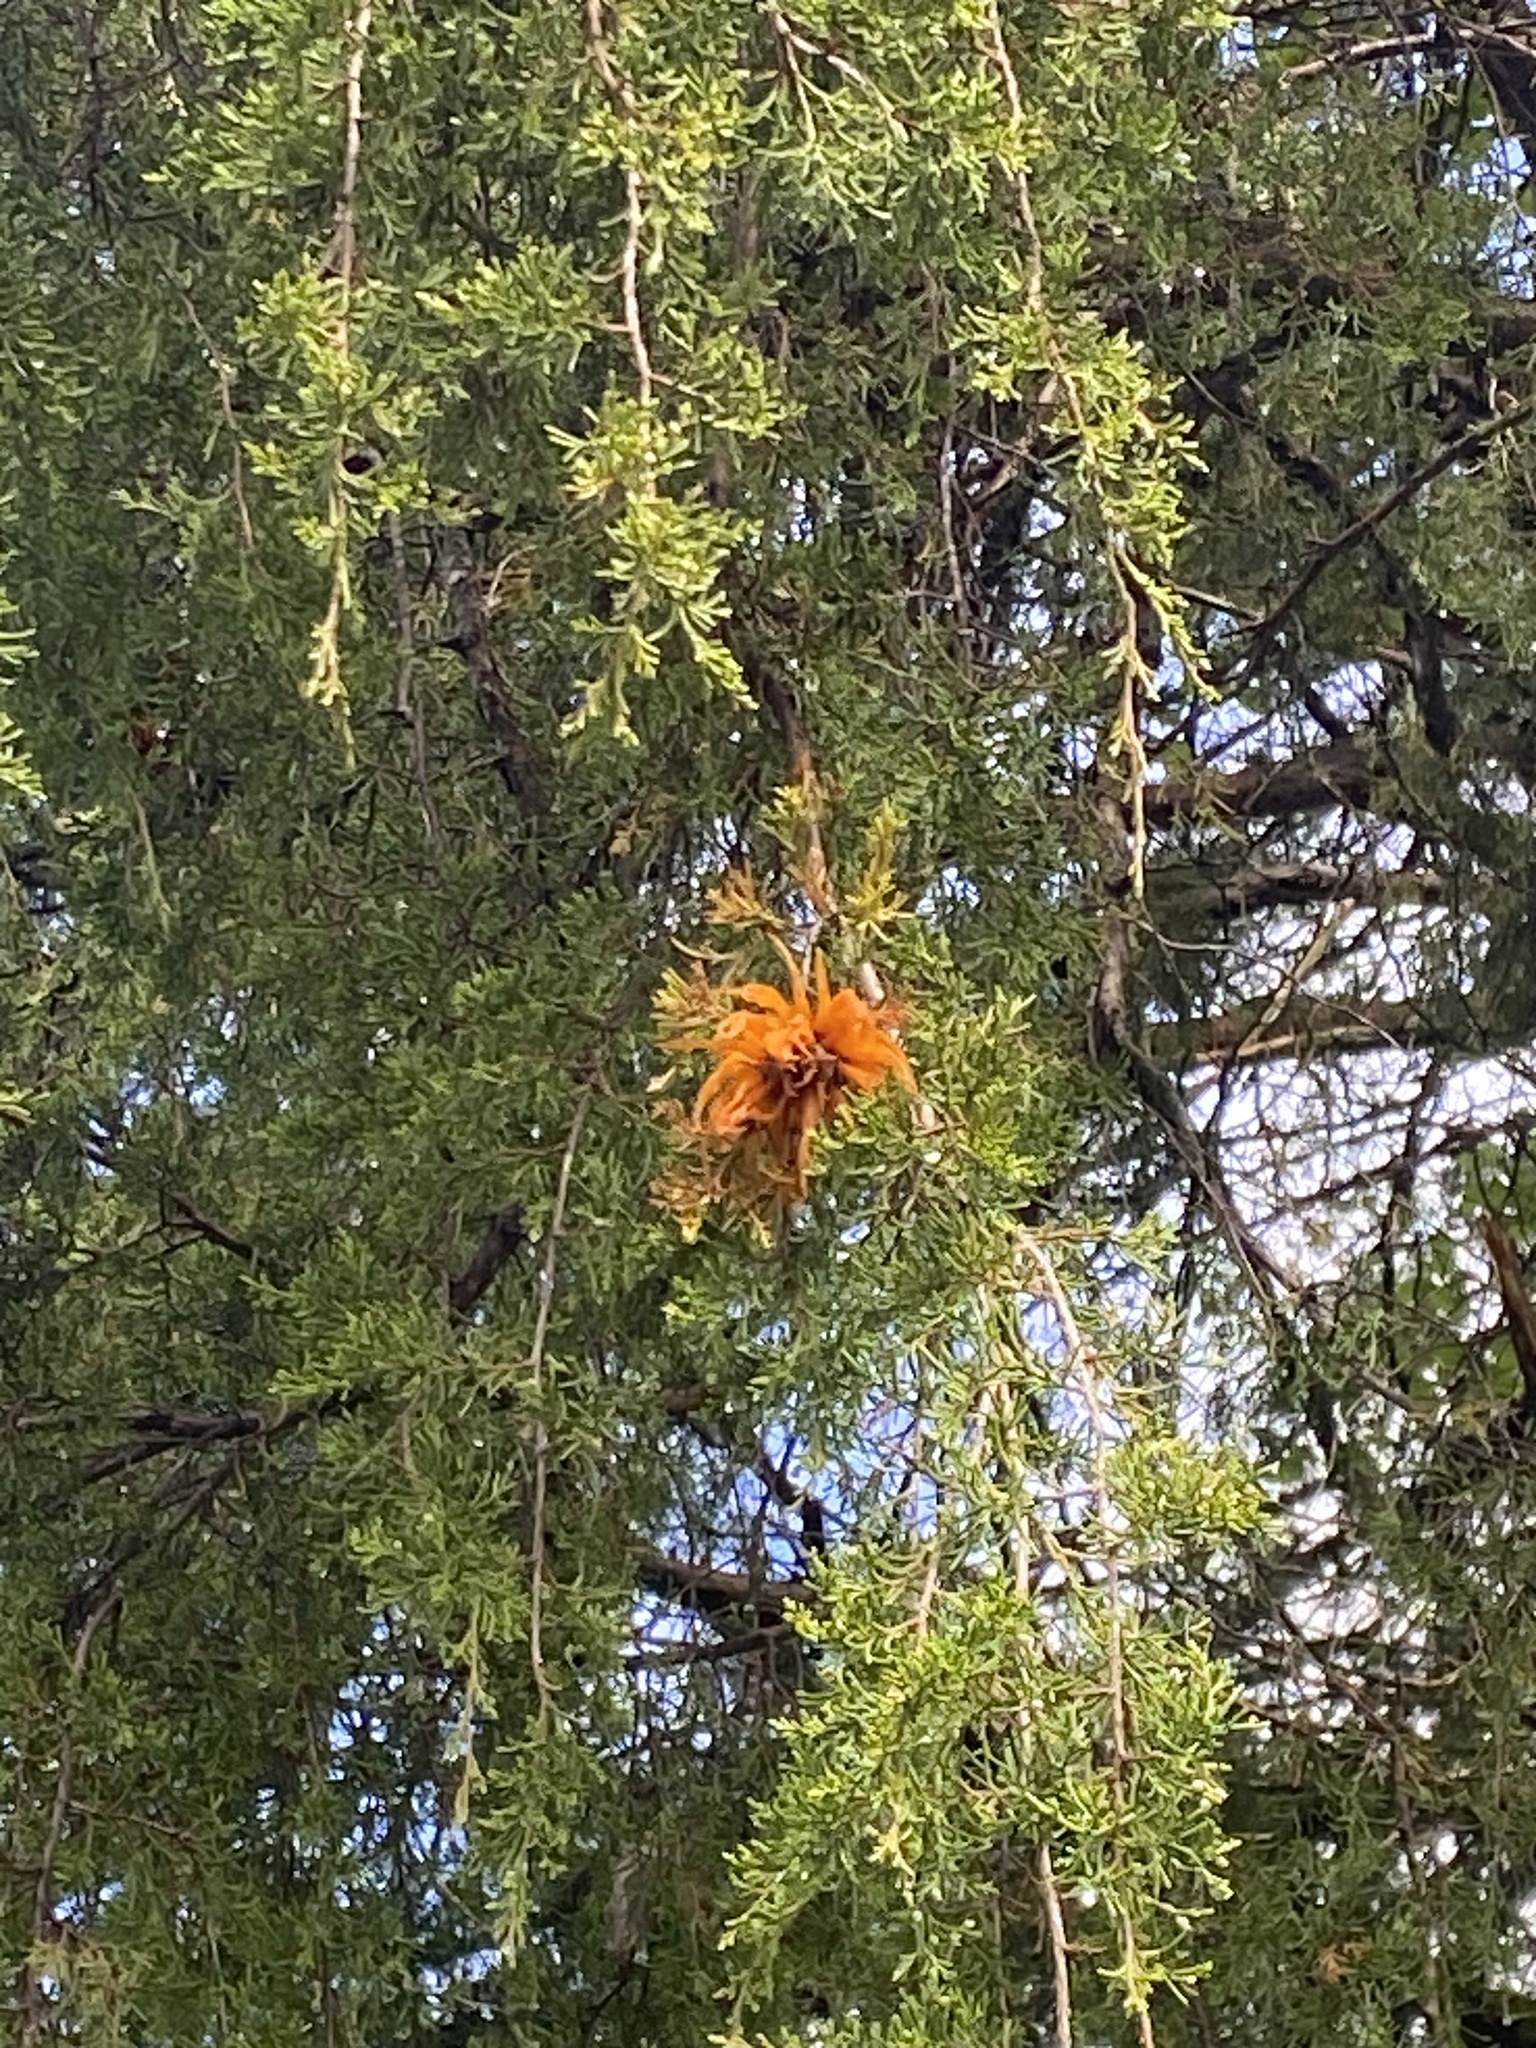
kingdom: Fungi
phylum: Basidiomycota
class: Pucciniomycetes
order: Pucciniales
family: Gymnosporangiaceae
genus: Gymnosporangium
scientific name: Gymnosporangium juniperi-virginianae
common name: Juniper-apple rust
